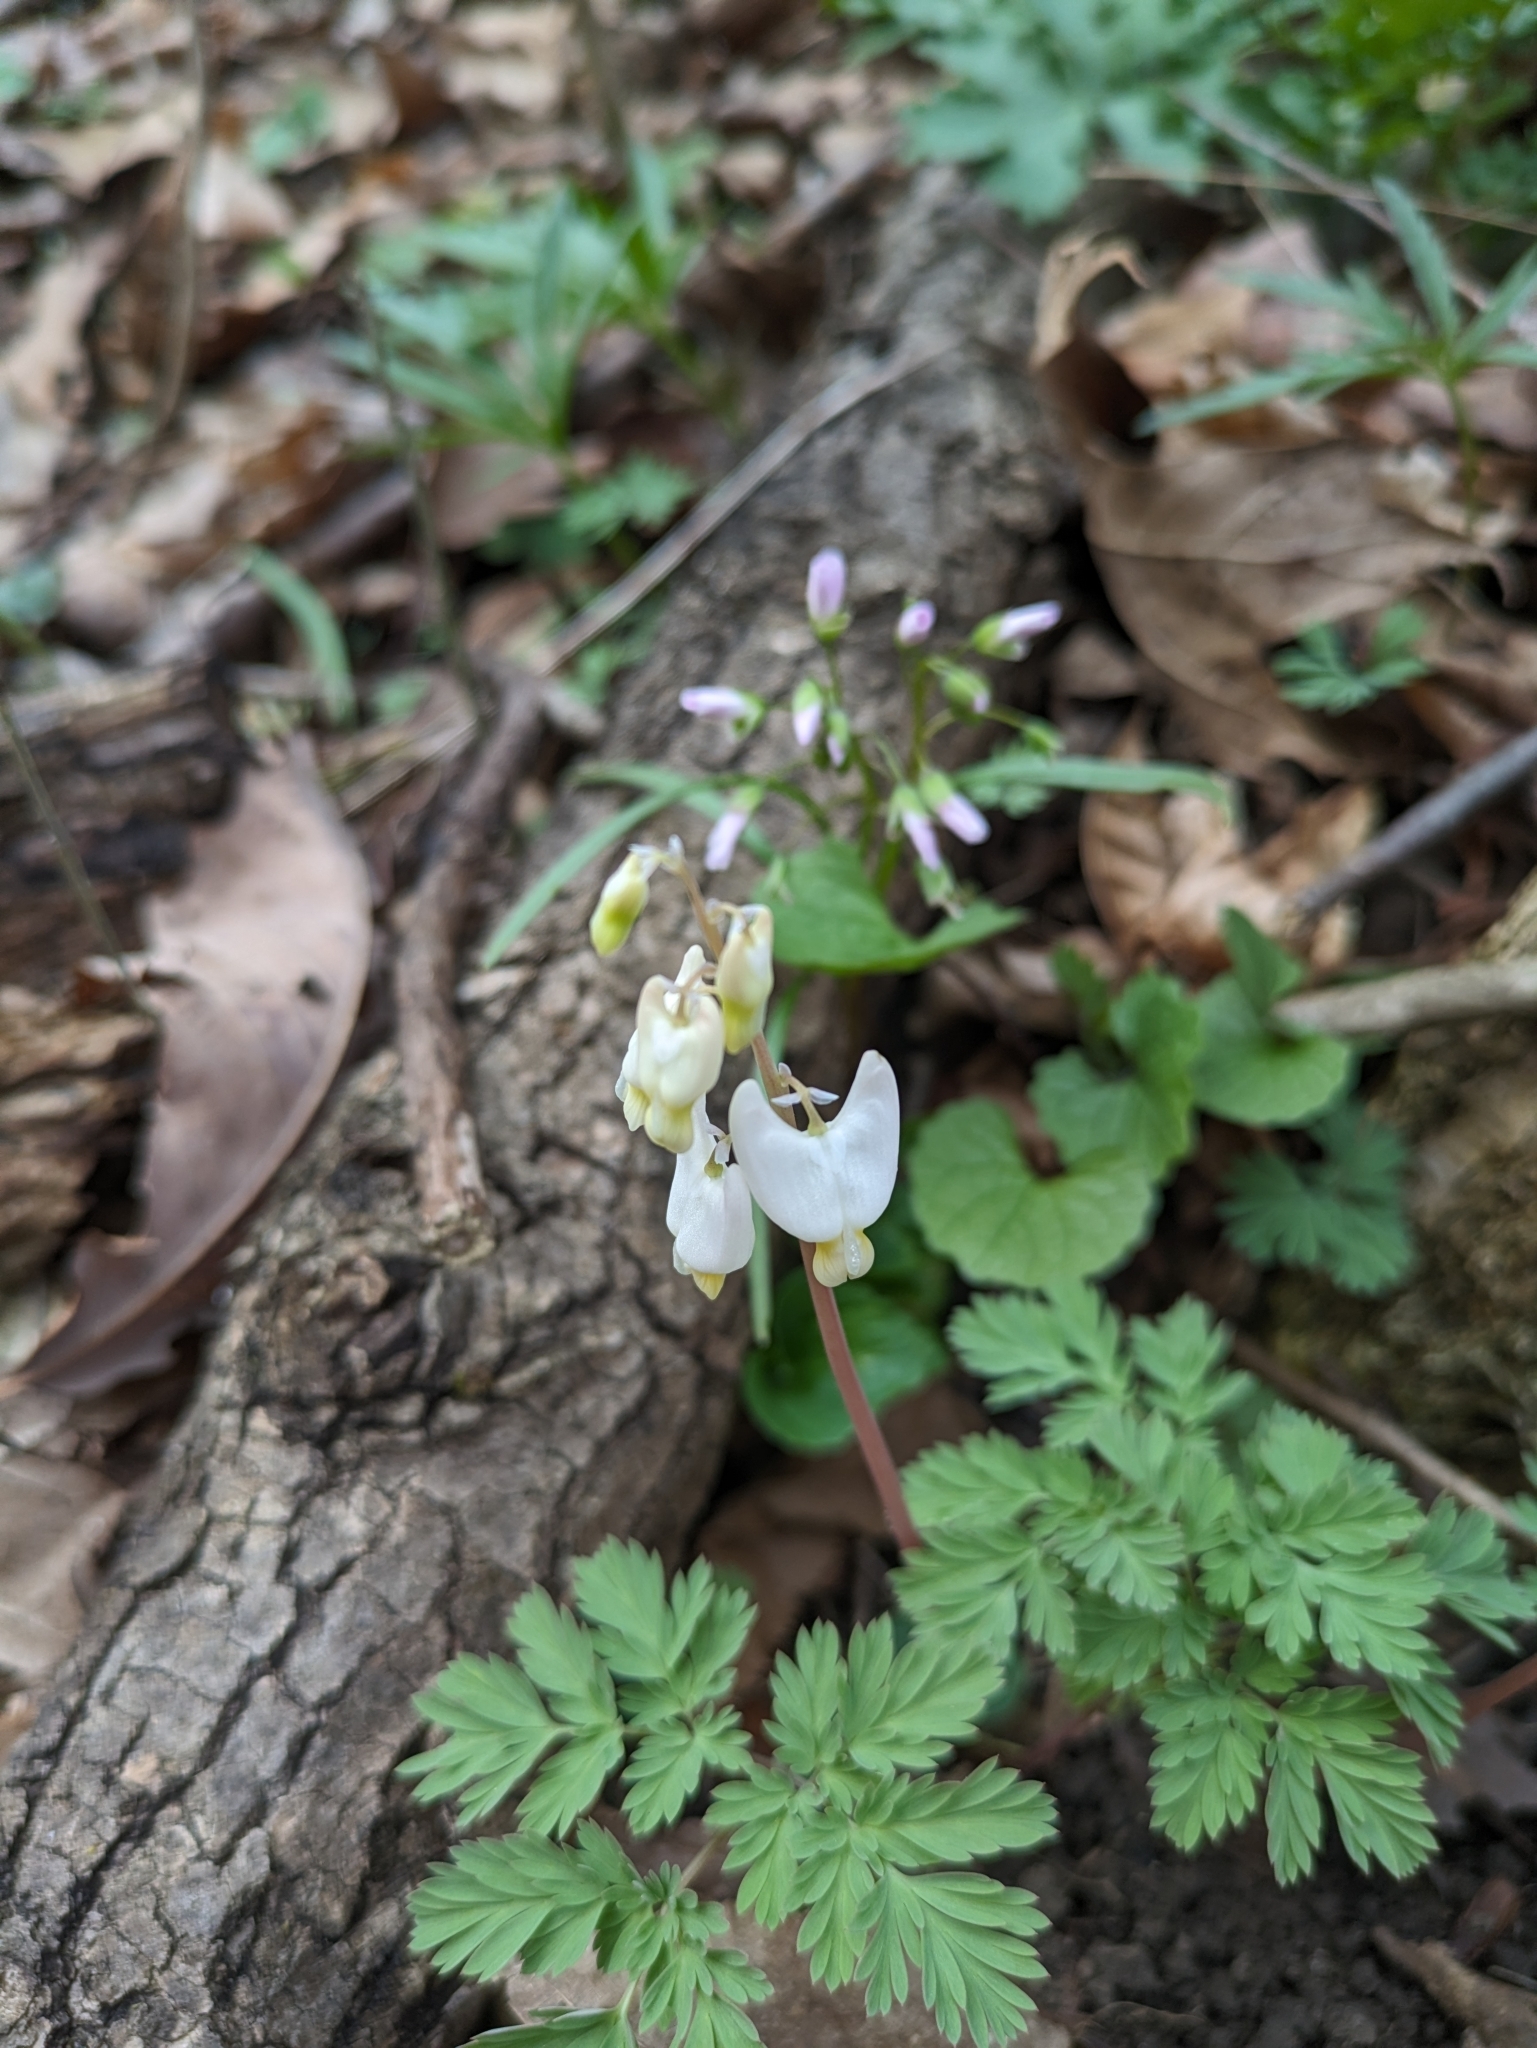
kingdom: Plantae
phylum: Tracheophyta
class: Magnoliopsida
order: Ranunculales
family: Papaveraceae
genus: Dicentra
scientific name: Dicentra cucullaria
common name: Dutchman's breeches
